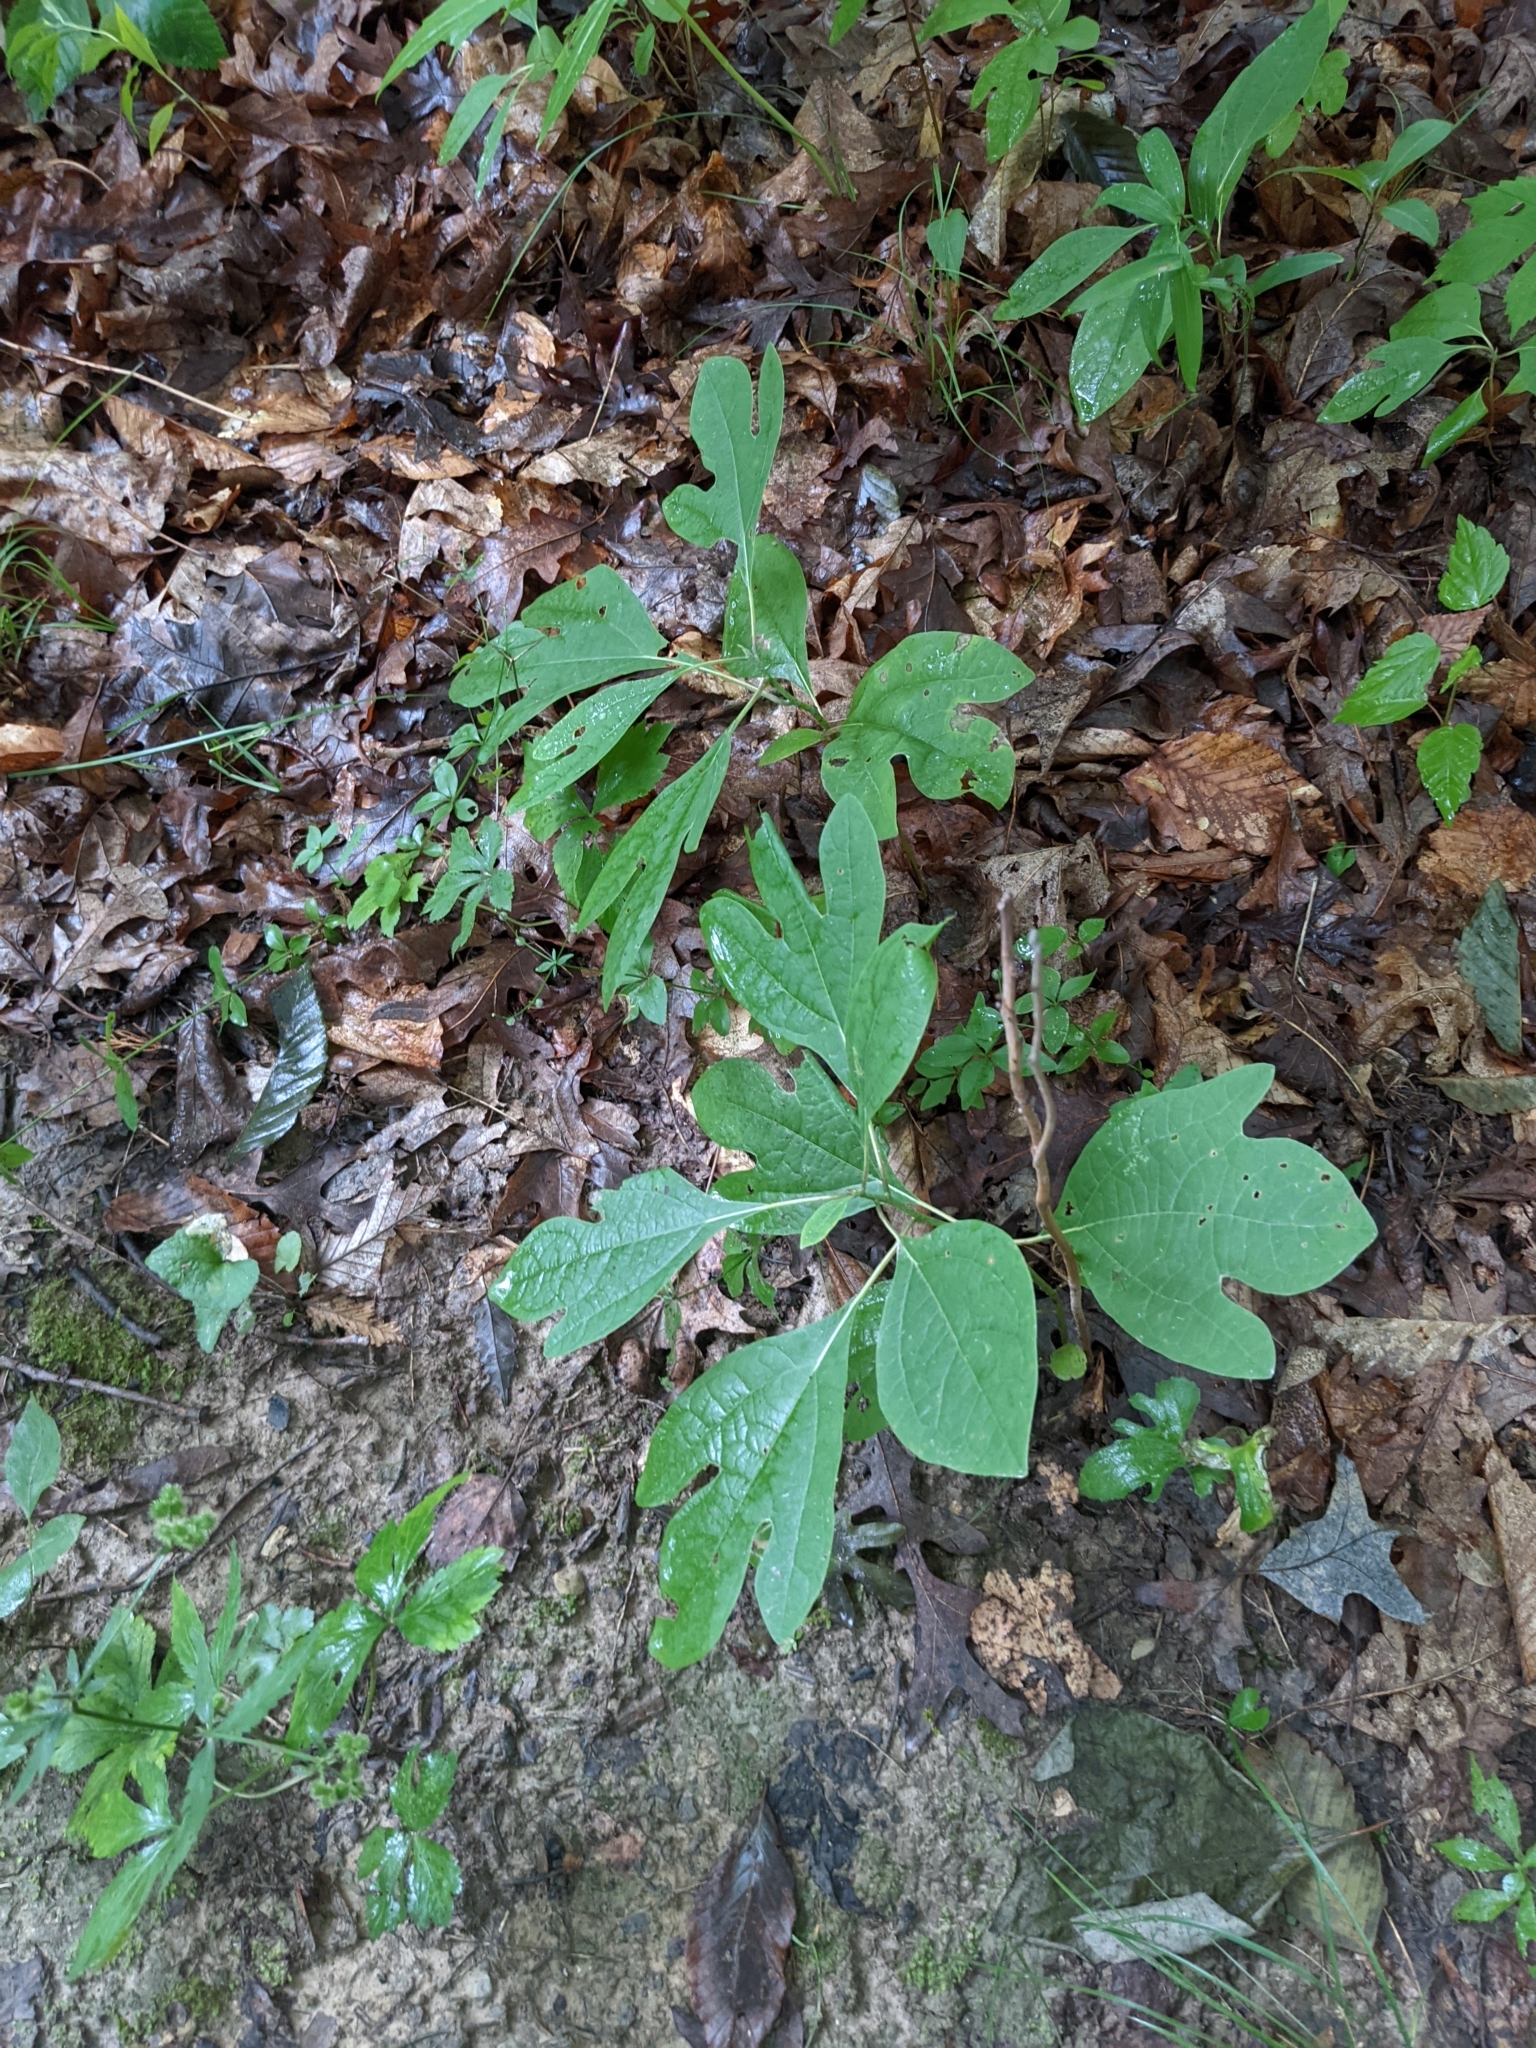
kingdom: Plantae
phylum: Tracheophyta
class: Magnoliopsida
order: Laurales
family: Lauraceae
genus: Sassafras
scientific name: Sassafras albidum
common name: Sassafras
